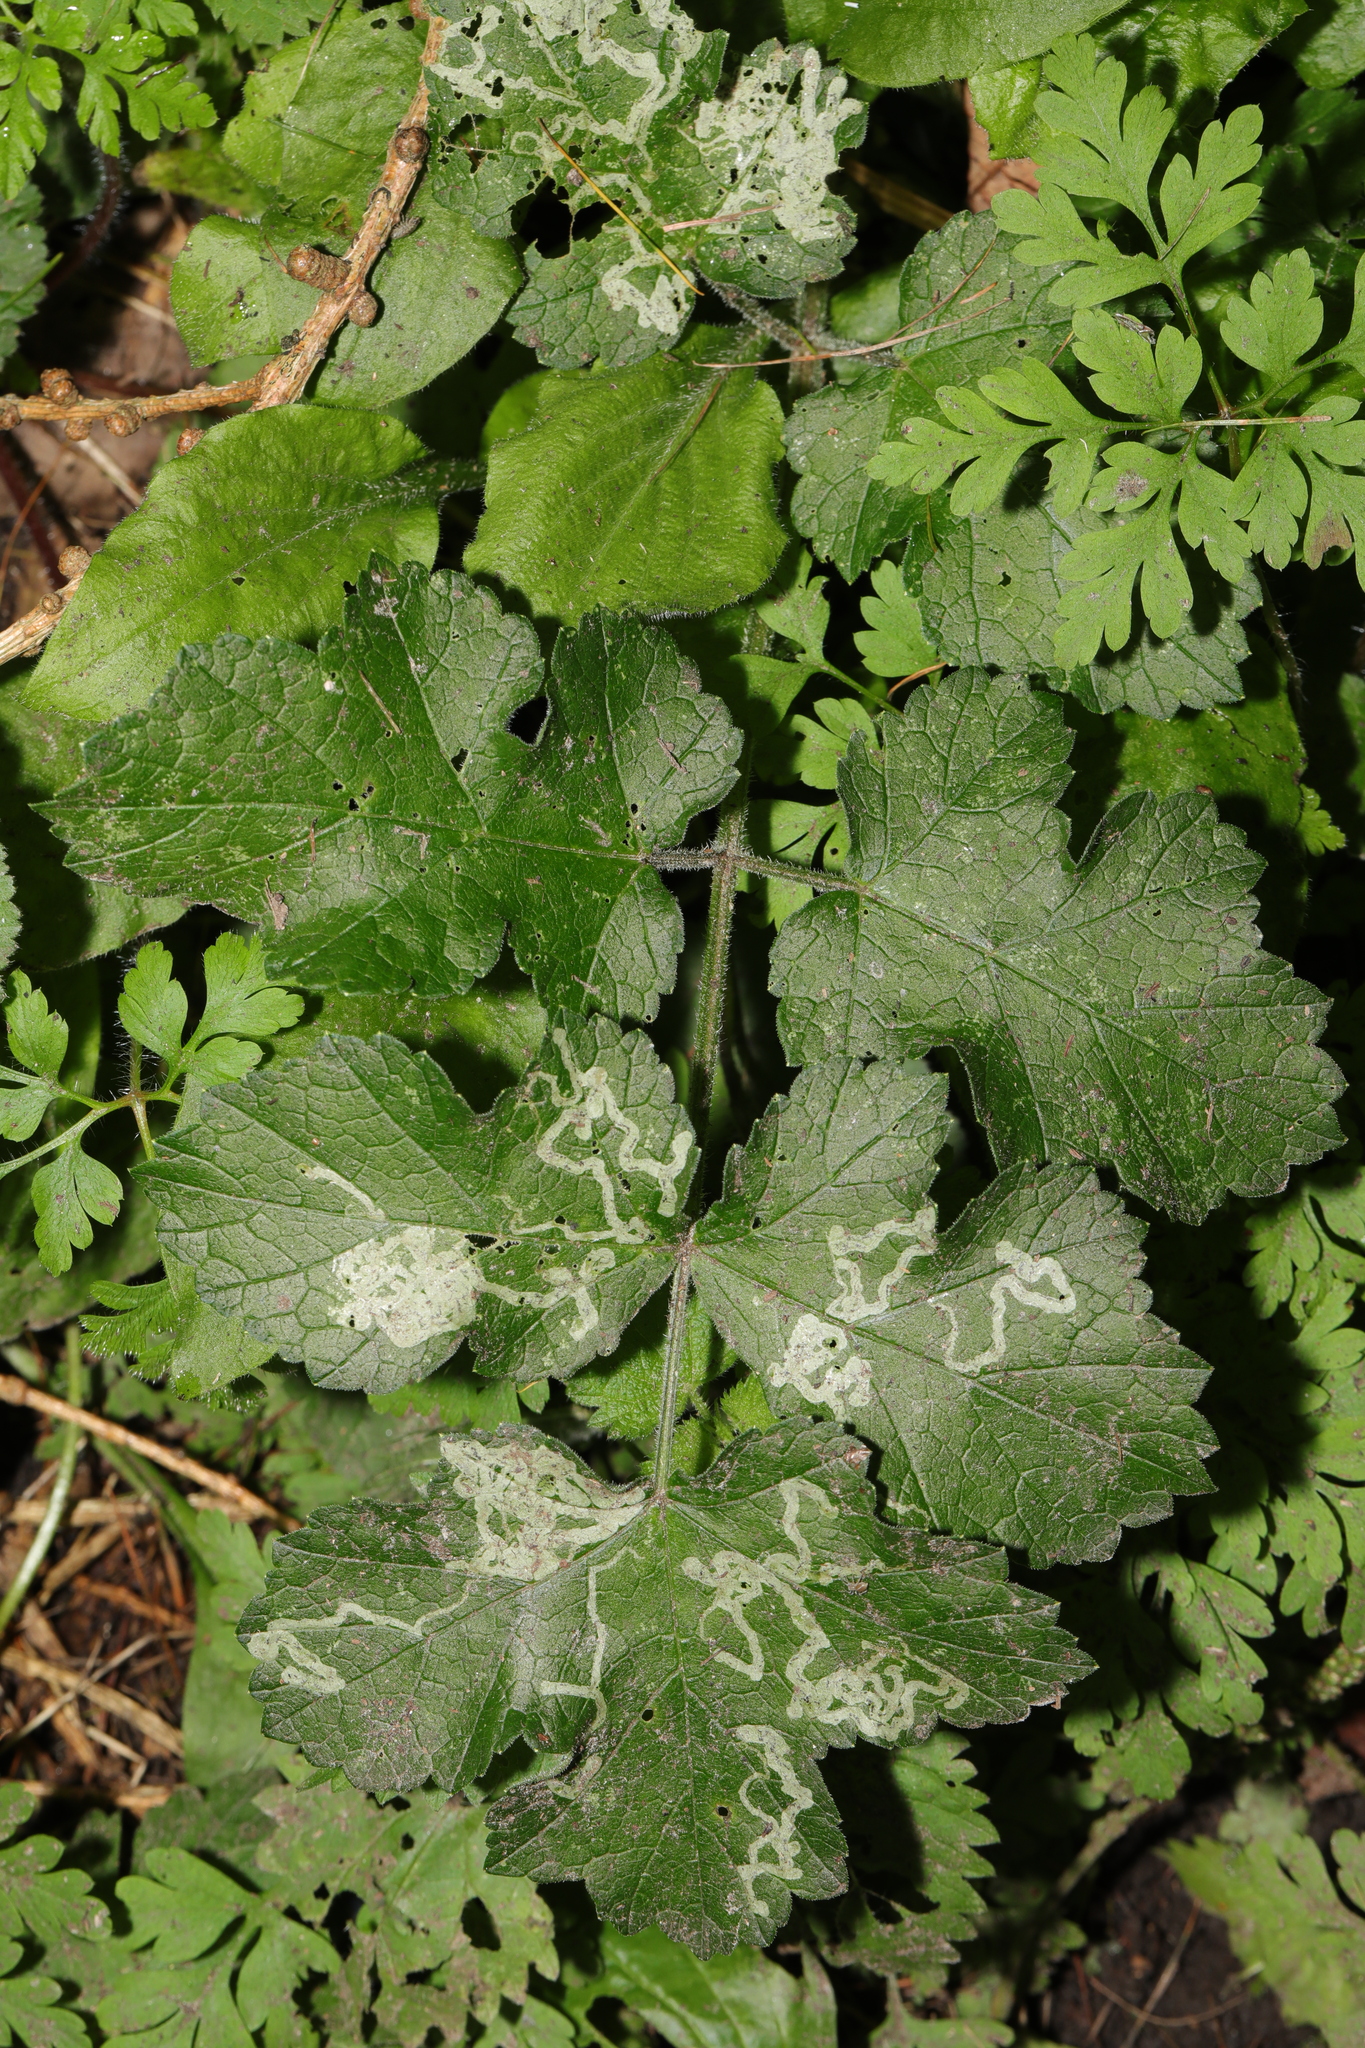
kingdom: Plantae
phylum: Tracheophyta
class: Magnoliopsida
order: Apiales
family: Apiaceae
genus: Heracleum
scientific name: Heracleum sphondylium
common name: Hogweed
